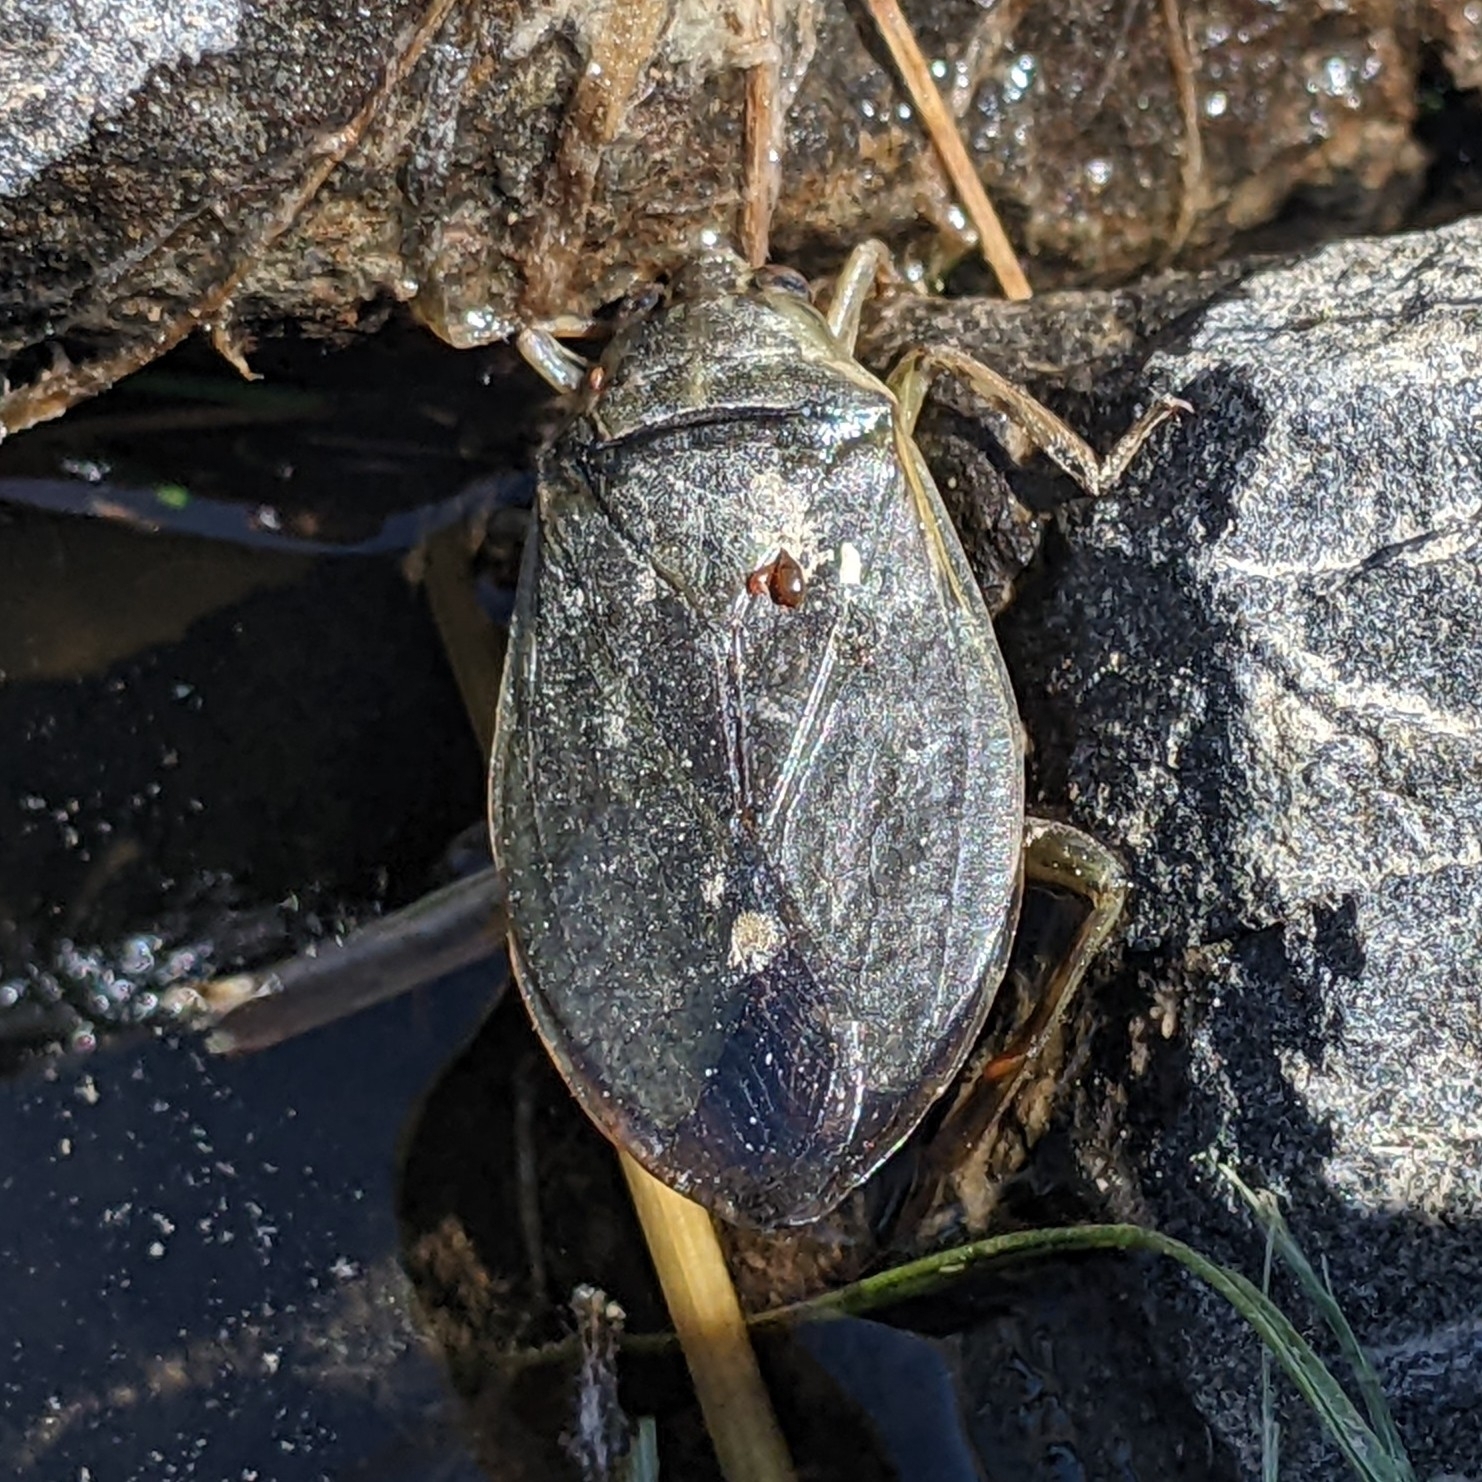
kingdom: Animalia
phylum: Arthropoda
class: Insecta
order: Hemiptera
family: Belostomatidae
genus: Belostoma
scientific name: Belostoma flumineum
